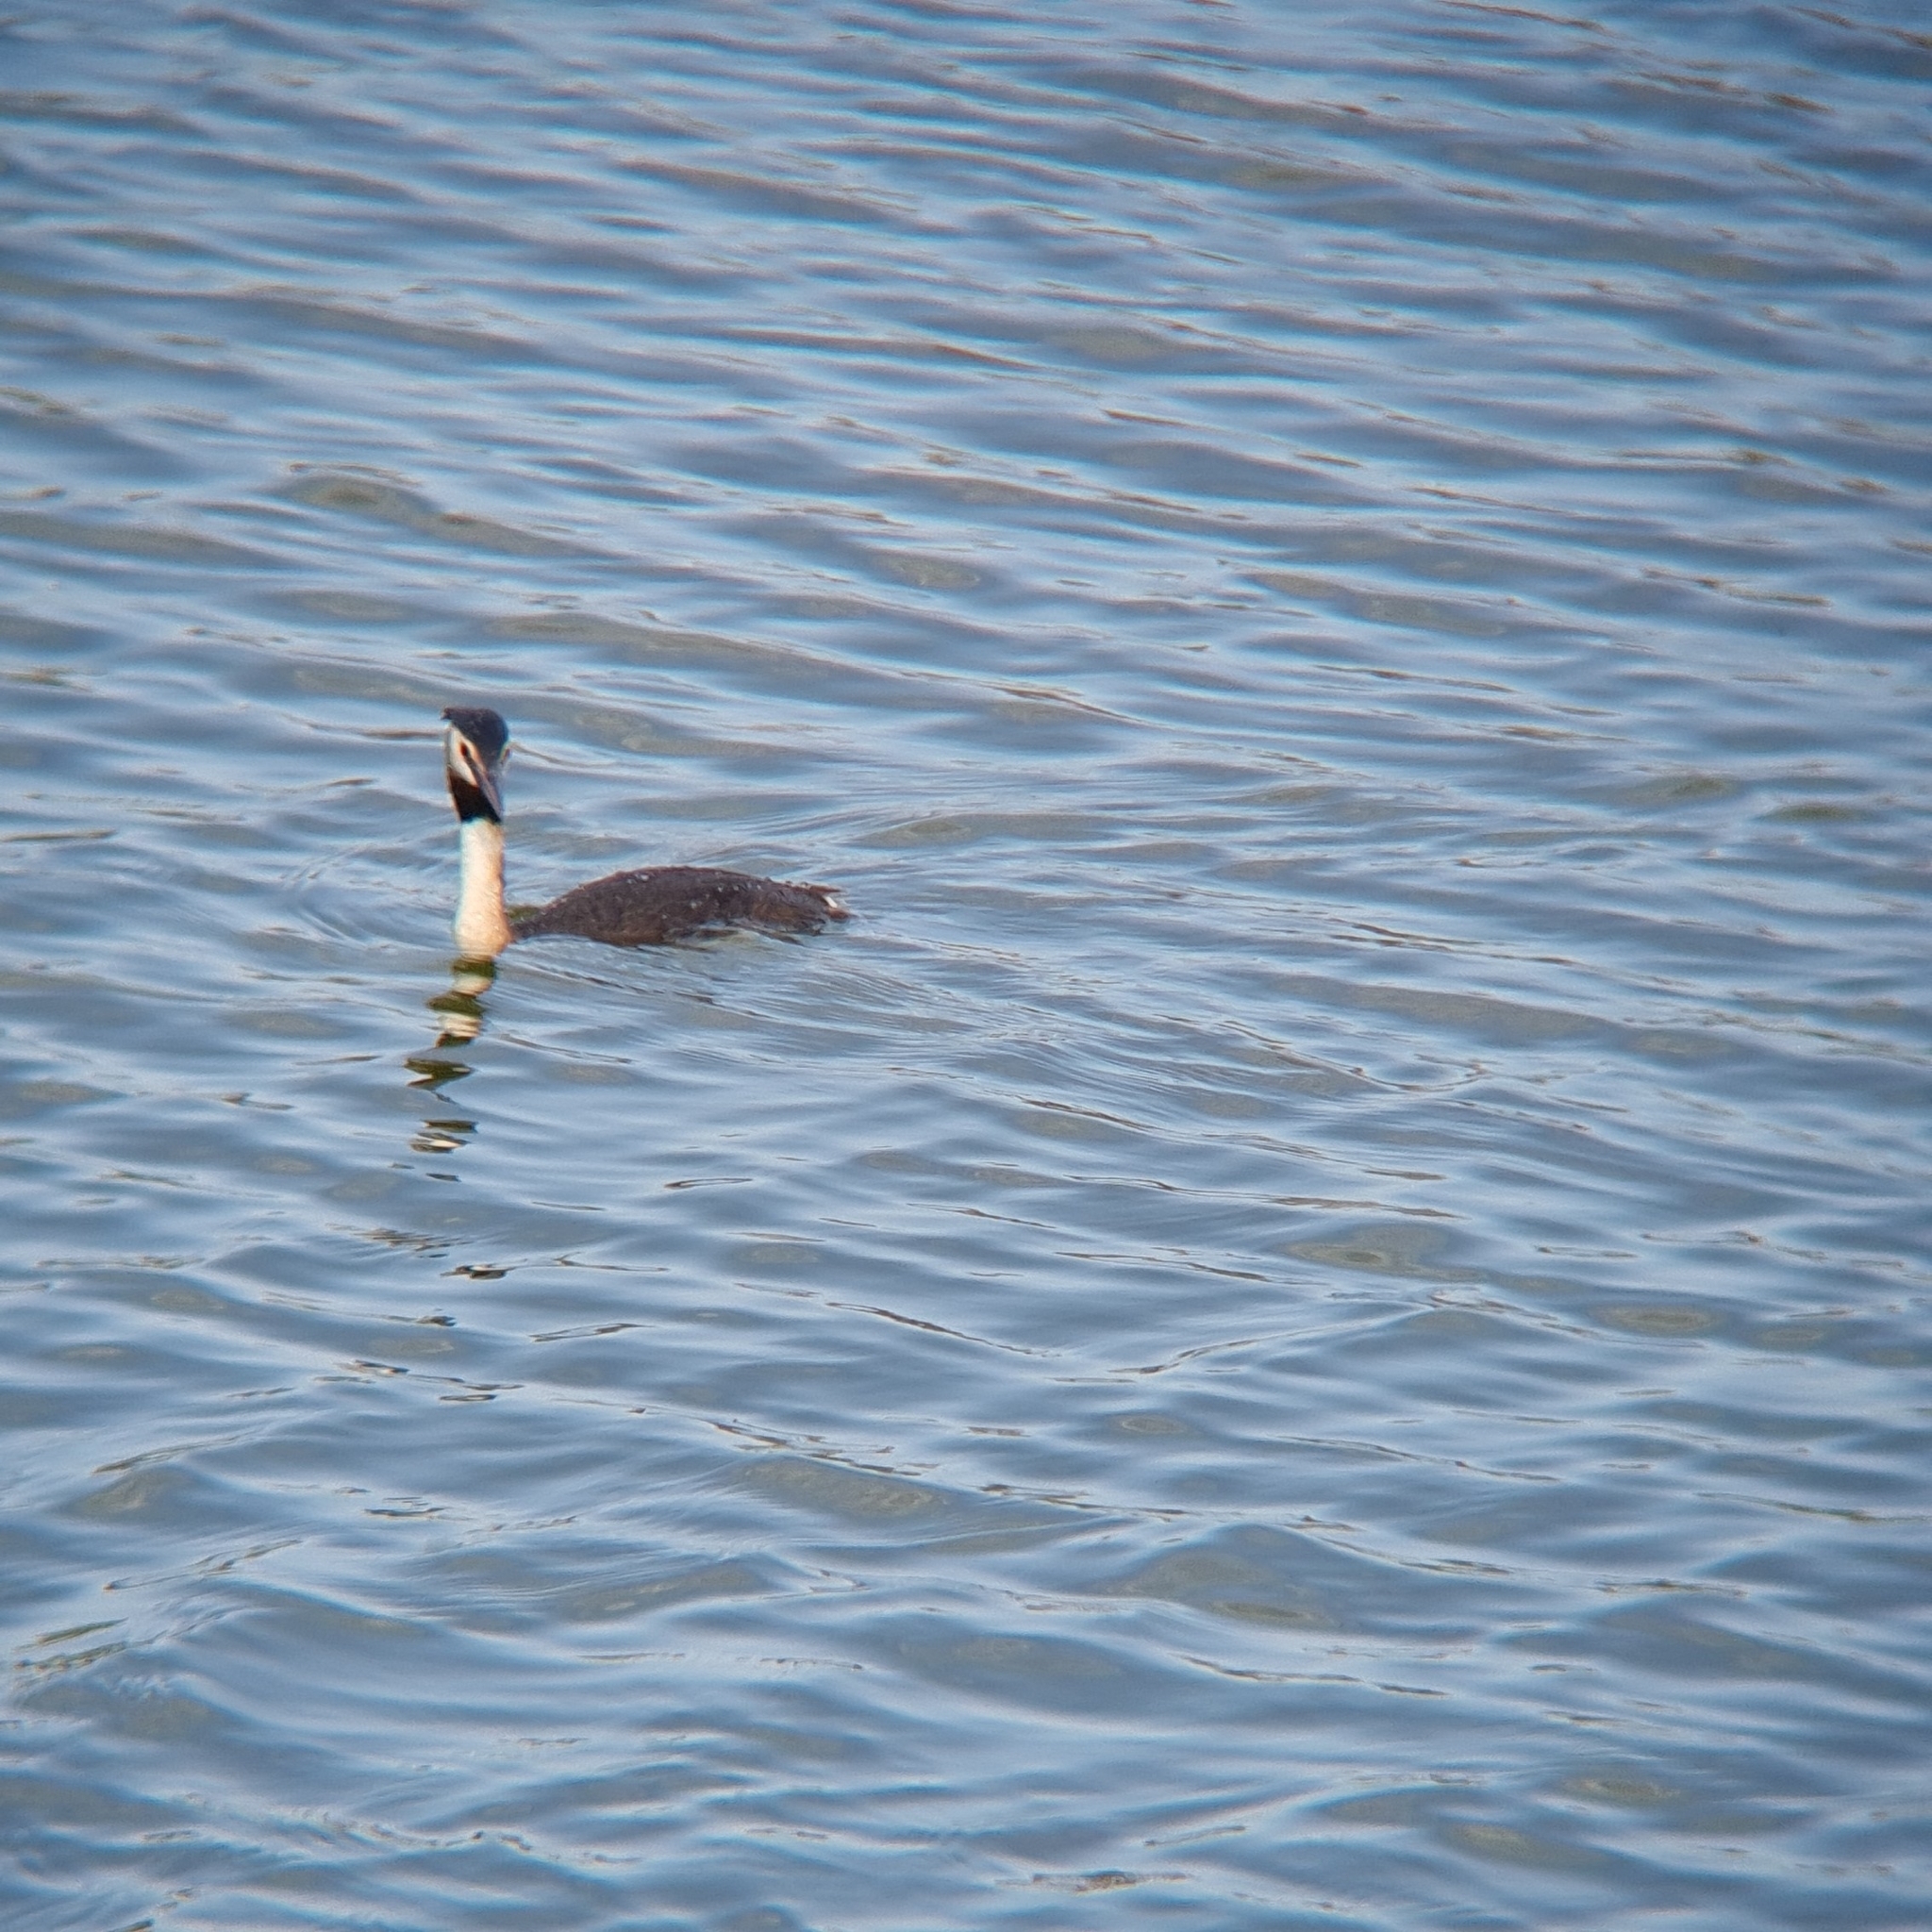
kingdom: Animalia
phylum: Chordata
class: Aves
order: Podicipediformes
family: Podicipedidae
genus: Podiceps
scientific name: Podiceps cristatus
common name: Great crested grebe
